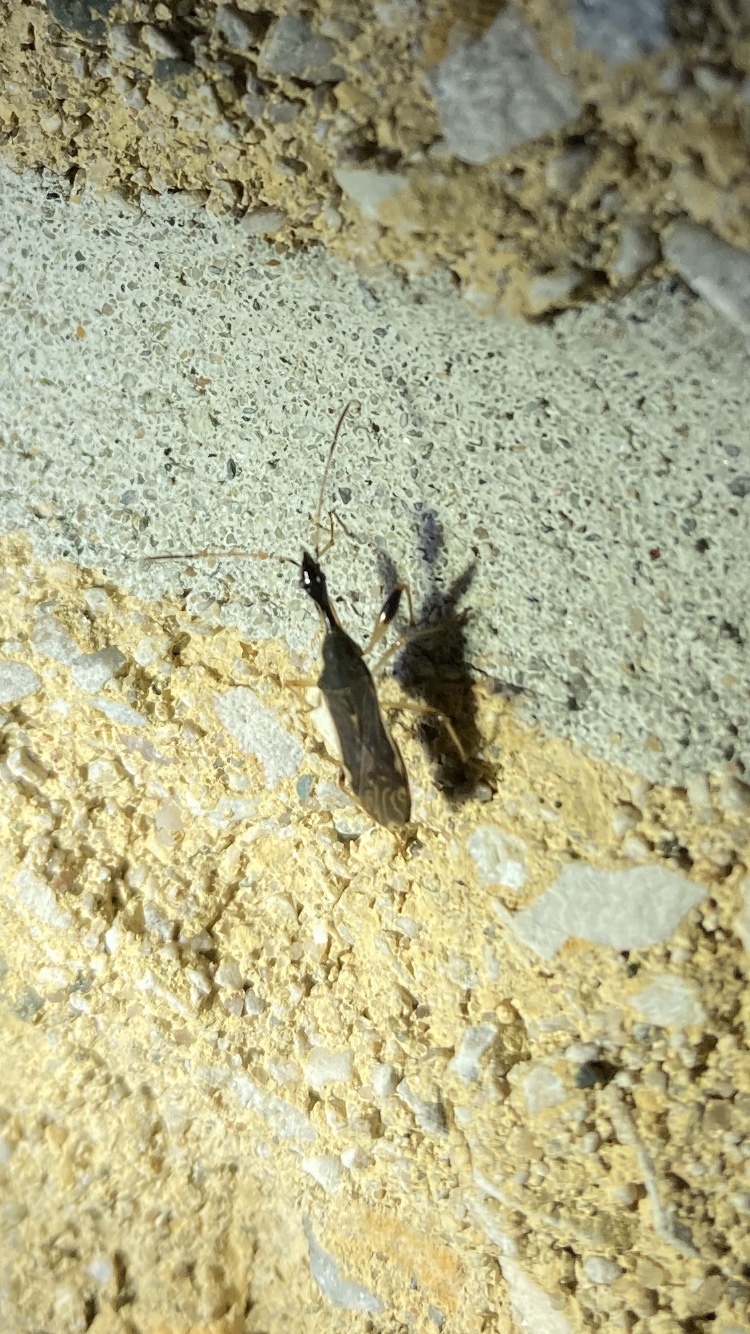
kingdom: Animalia
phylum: Arthropoda
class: Insecta
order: Hemiptera
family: Rhyparochromidae
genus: Myodocha
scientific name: Myodocha serripes
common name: Long-necked seed bug
